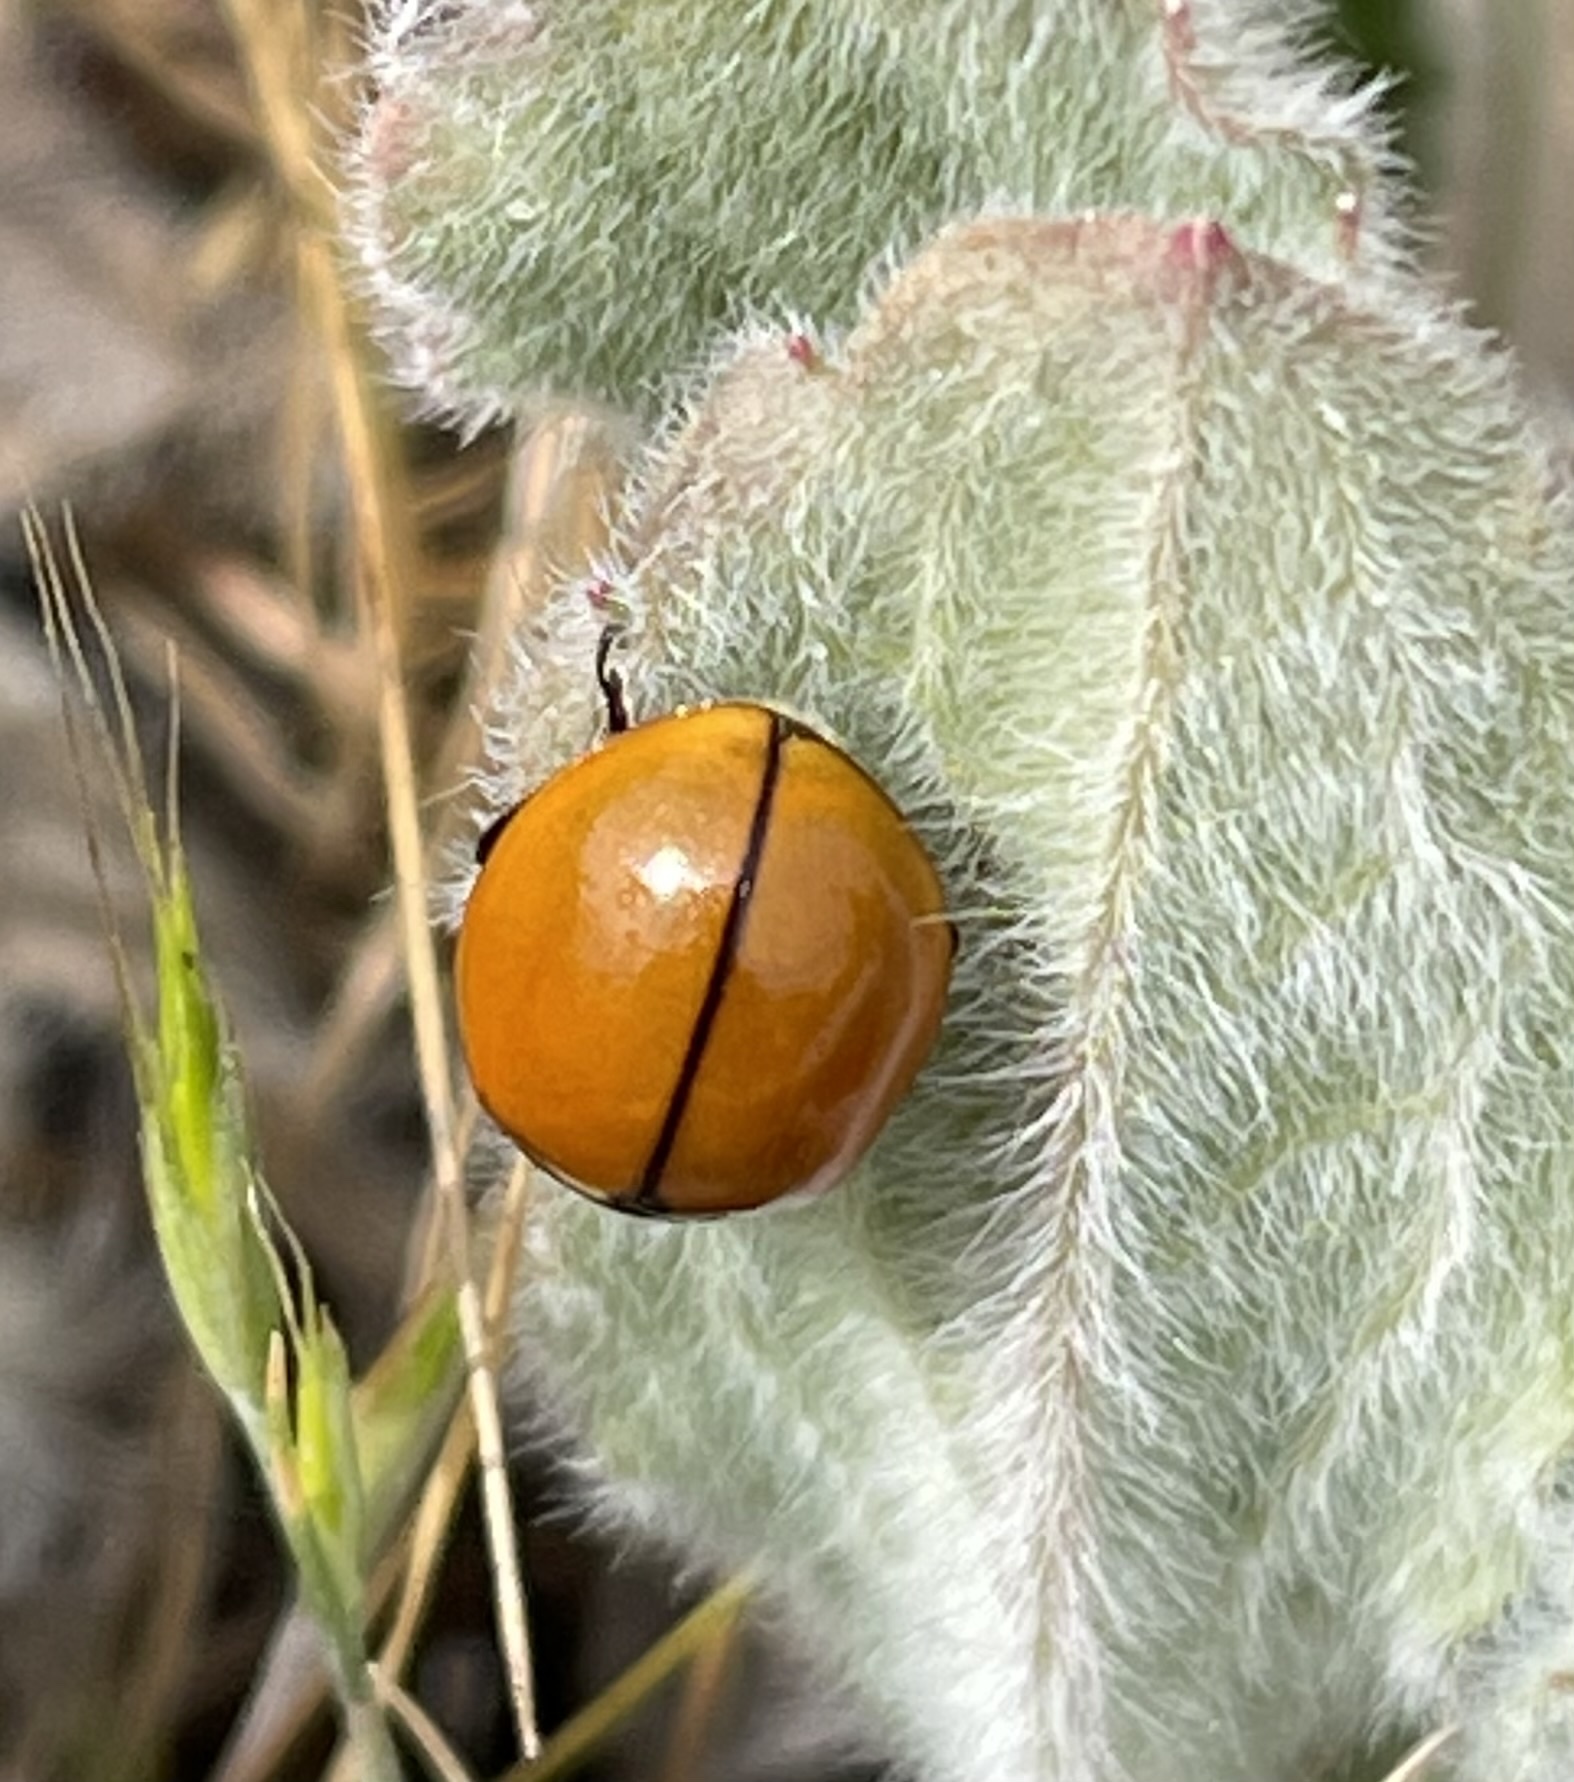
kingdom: Animalia
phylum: Arthropoda
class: Insecta
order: Coleoptera
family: Coccinellidae
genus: Coccinella
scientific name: Coccinella californica
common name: Lady beetle
